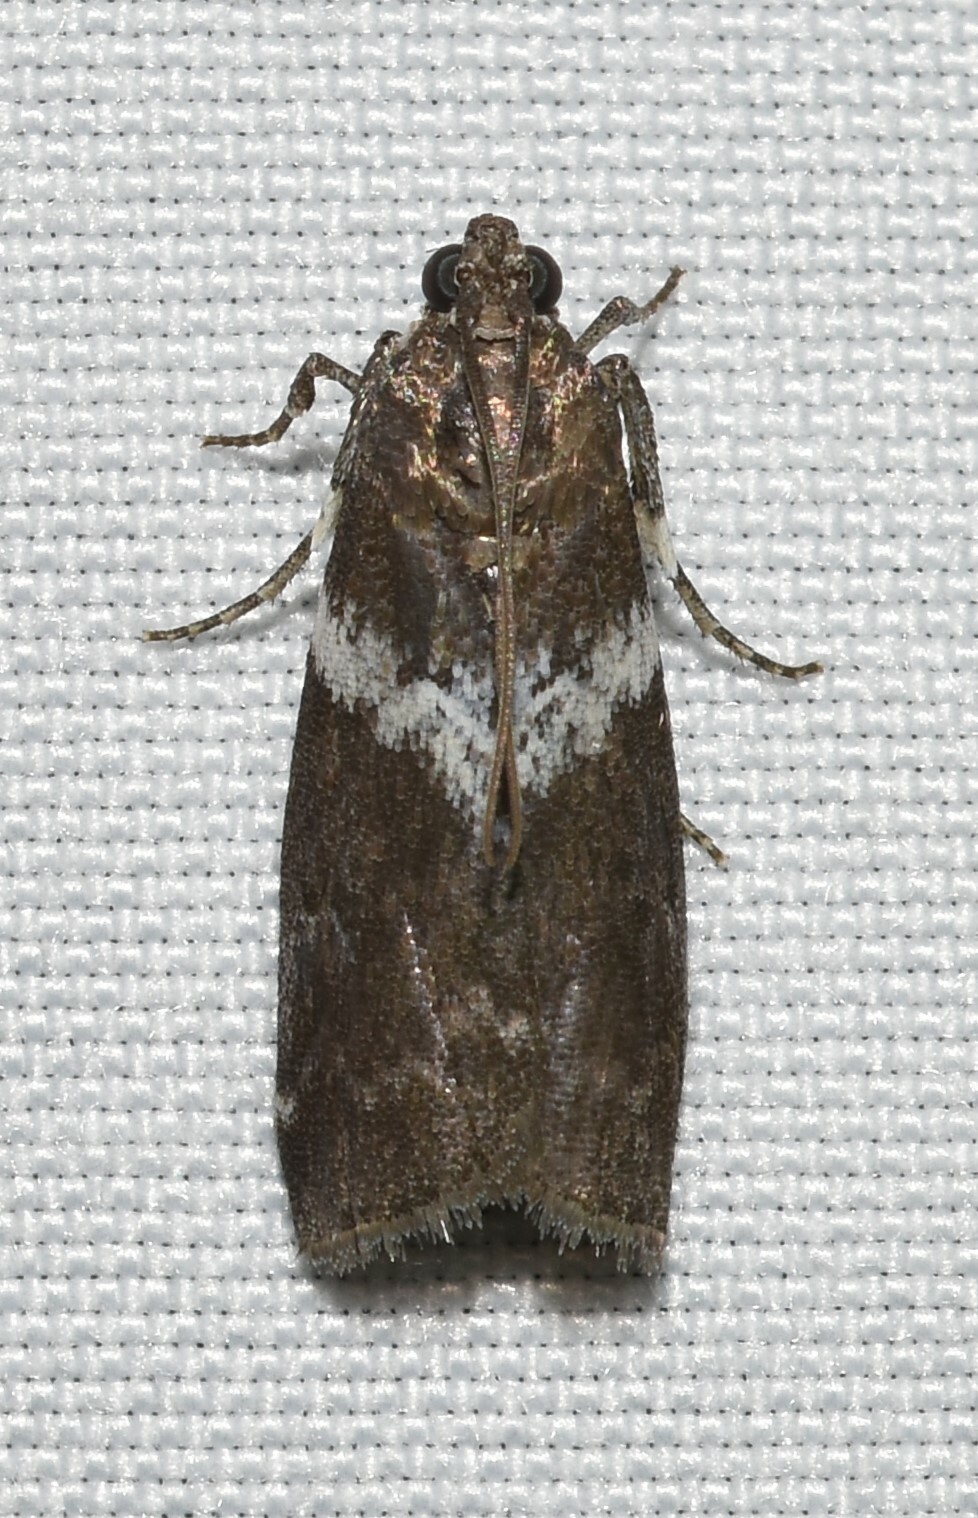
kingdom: Animalia
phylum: Arthropoda
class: Insecta
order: Lepidoptera
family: Pyralidae
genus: Salebriaria
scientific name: Salebriaria fasciata
